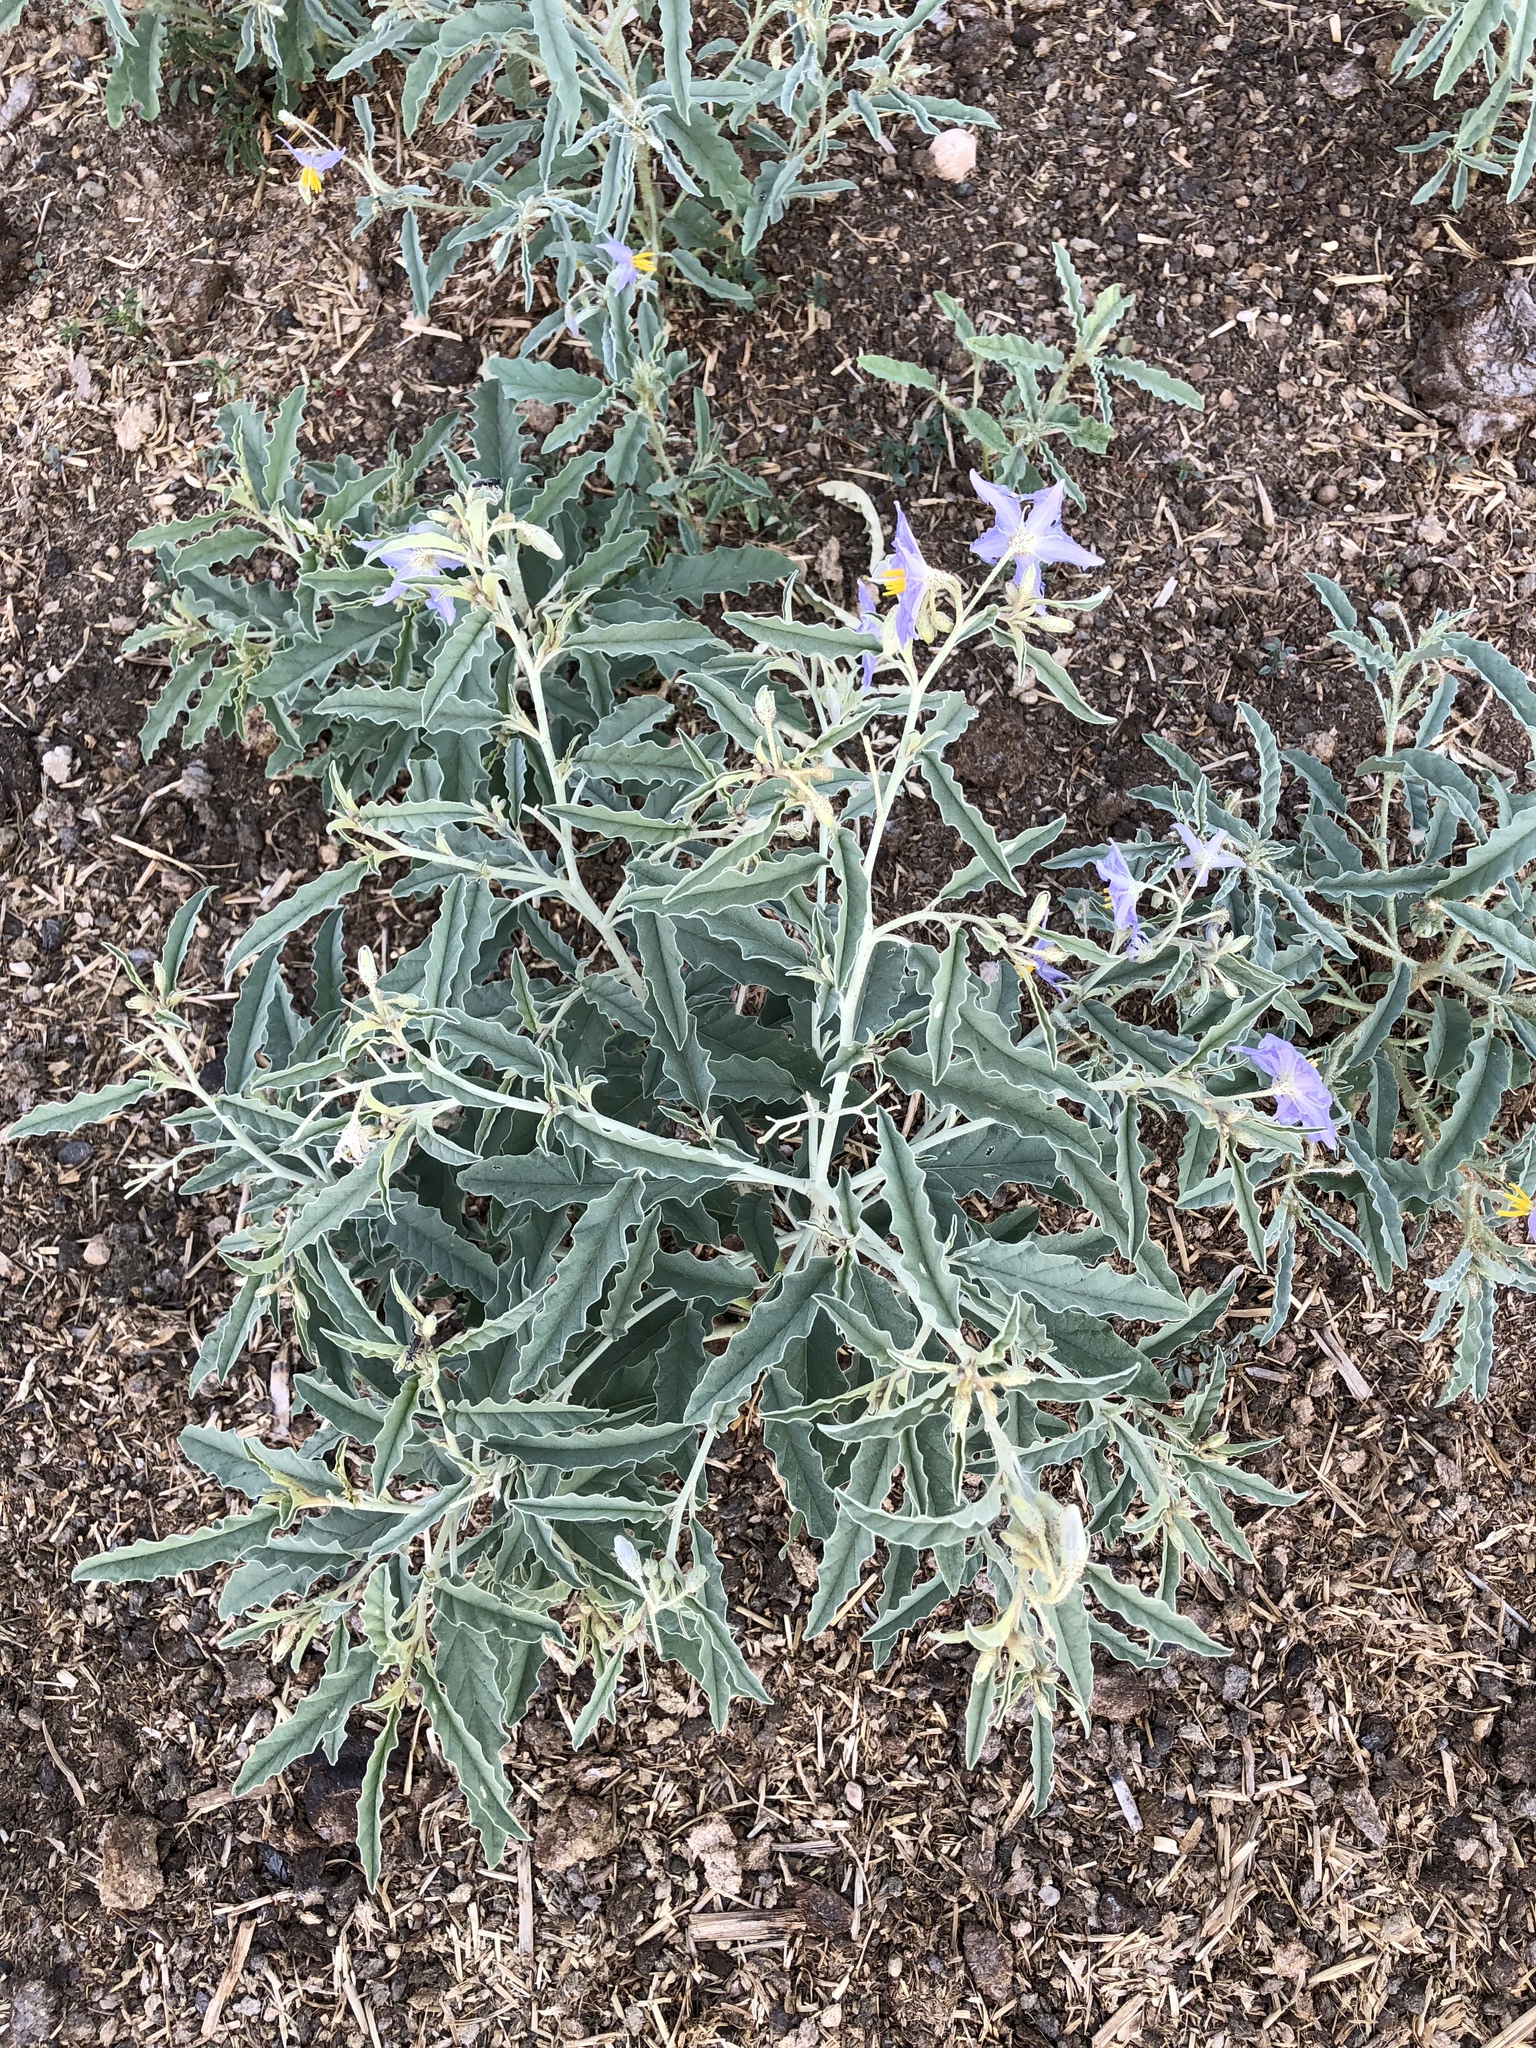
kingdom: Plantae
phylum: Tracheophyta
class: Magnoliopsida
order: Solanales
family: Solanaceae
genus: Solanum
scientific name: Solanum elaeagnifolium
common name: Silverleaf nightshade
